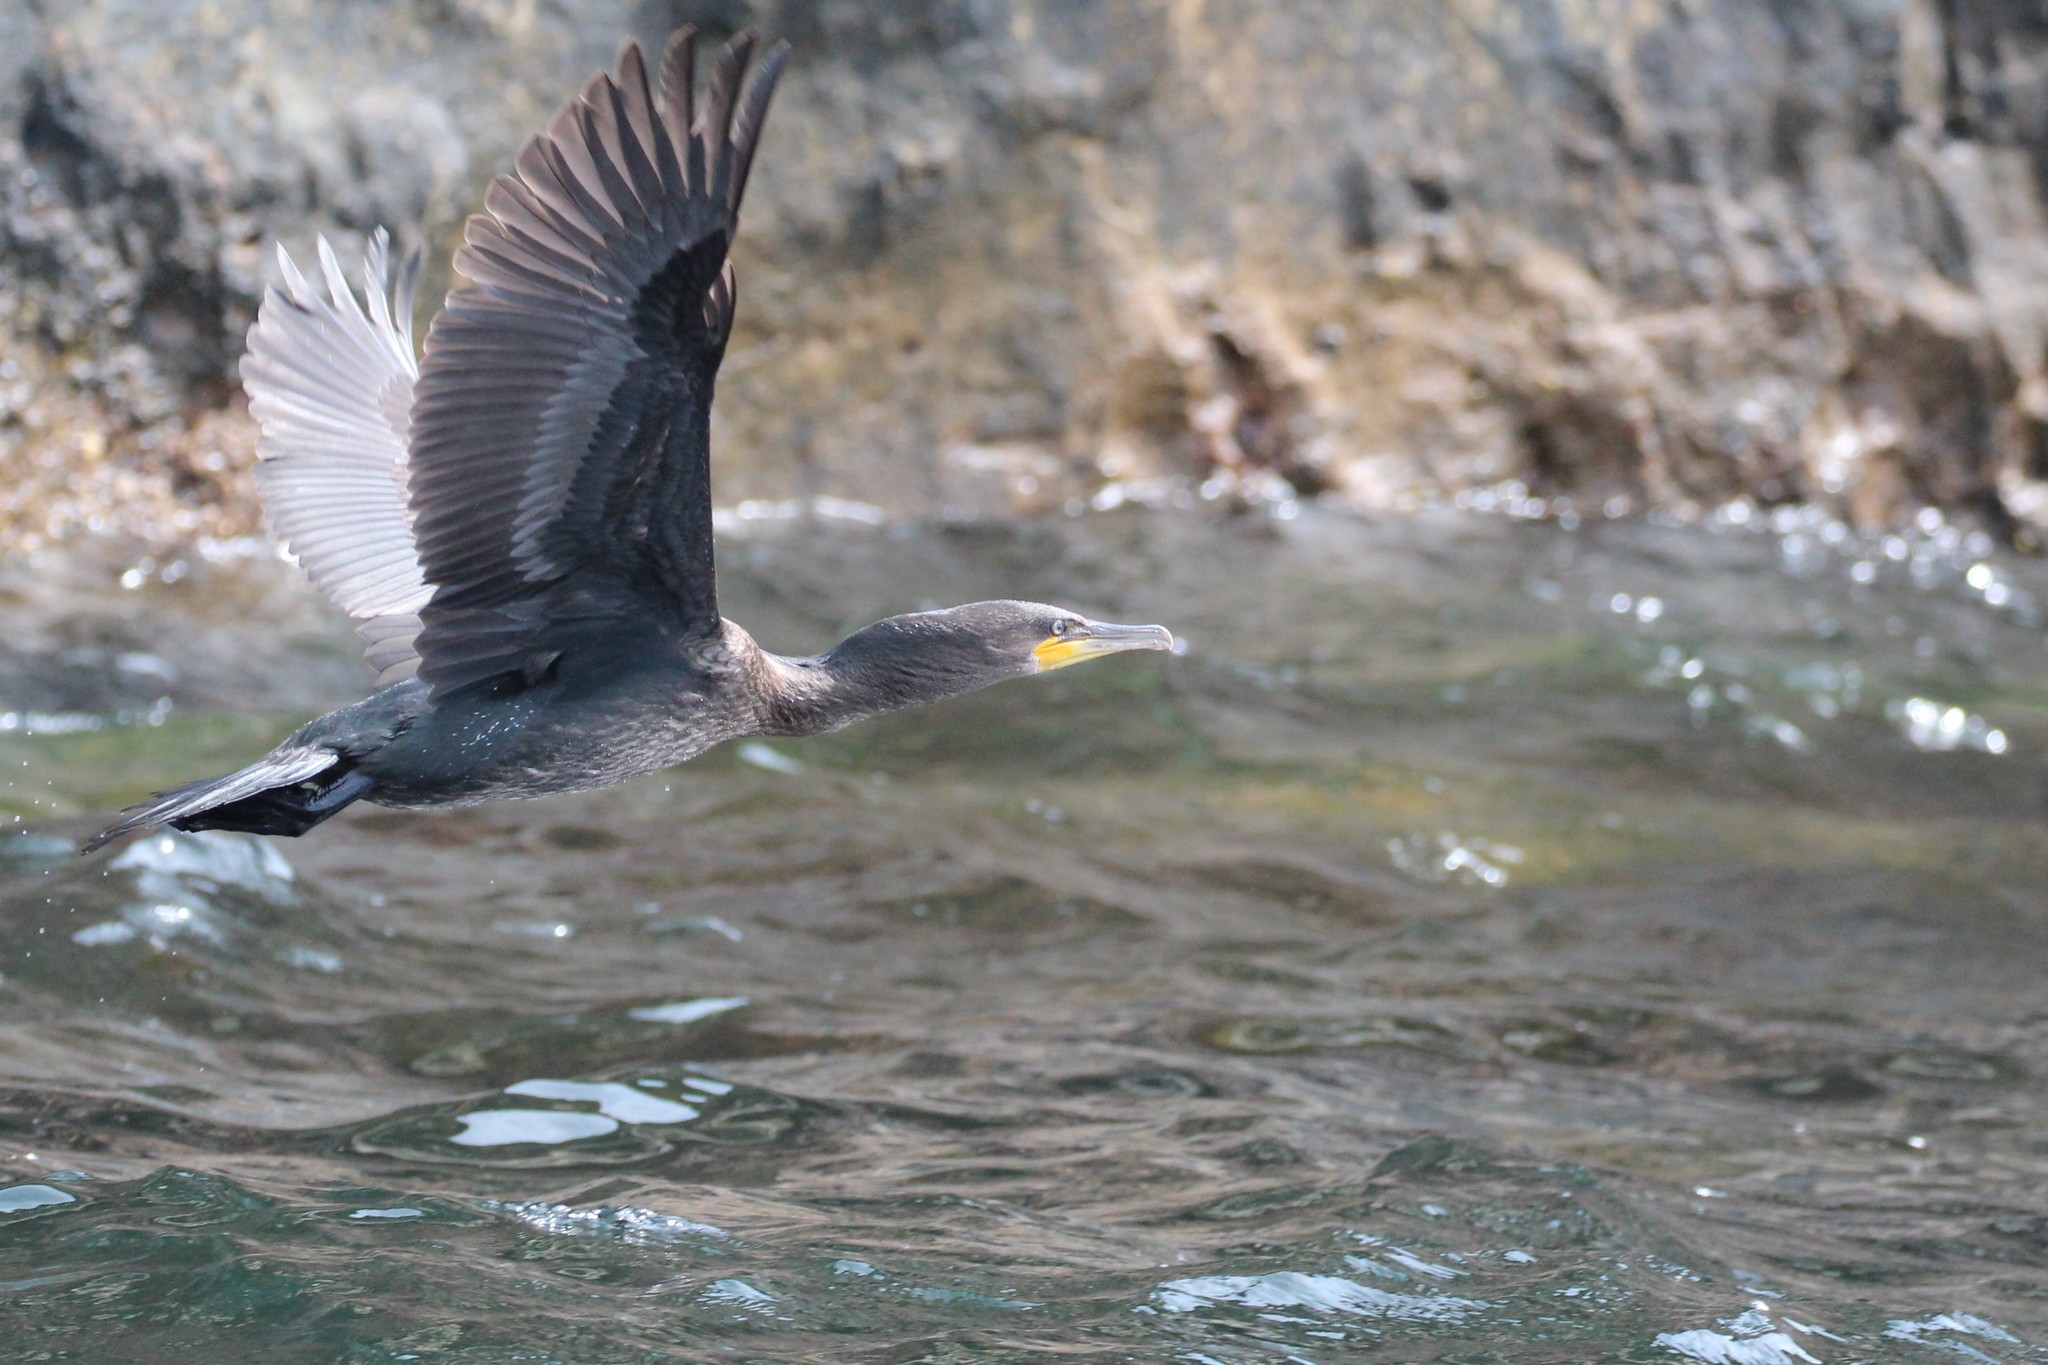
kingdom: Animalia
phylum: Chordata
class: Aves
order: Suliformes
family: Phalacrocoracidae
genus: Phalacrocorax
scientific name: Phalacrocorax auritus
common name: Double-crested cormorant
